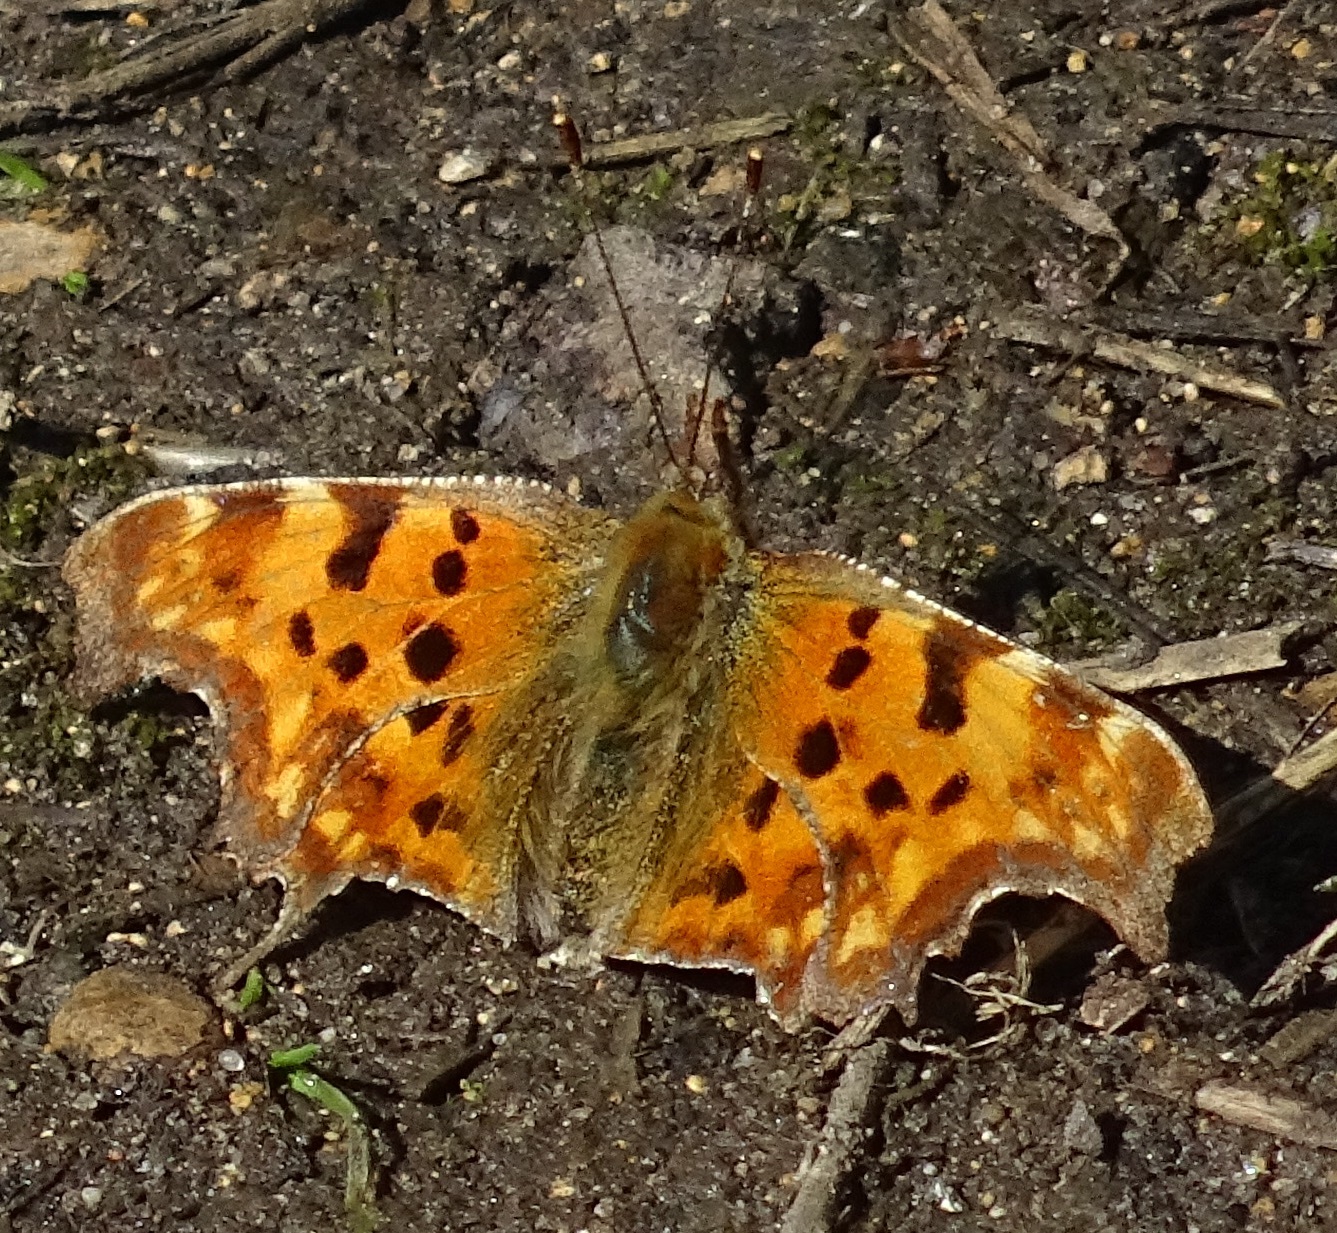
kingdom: Animalia
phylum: Arthropoda
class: Insecta
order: Lepidoptera
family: Nymphalidae
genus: Polygonia
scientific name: Polygonia c-album
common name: Comma
